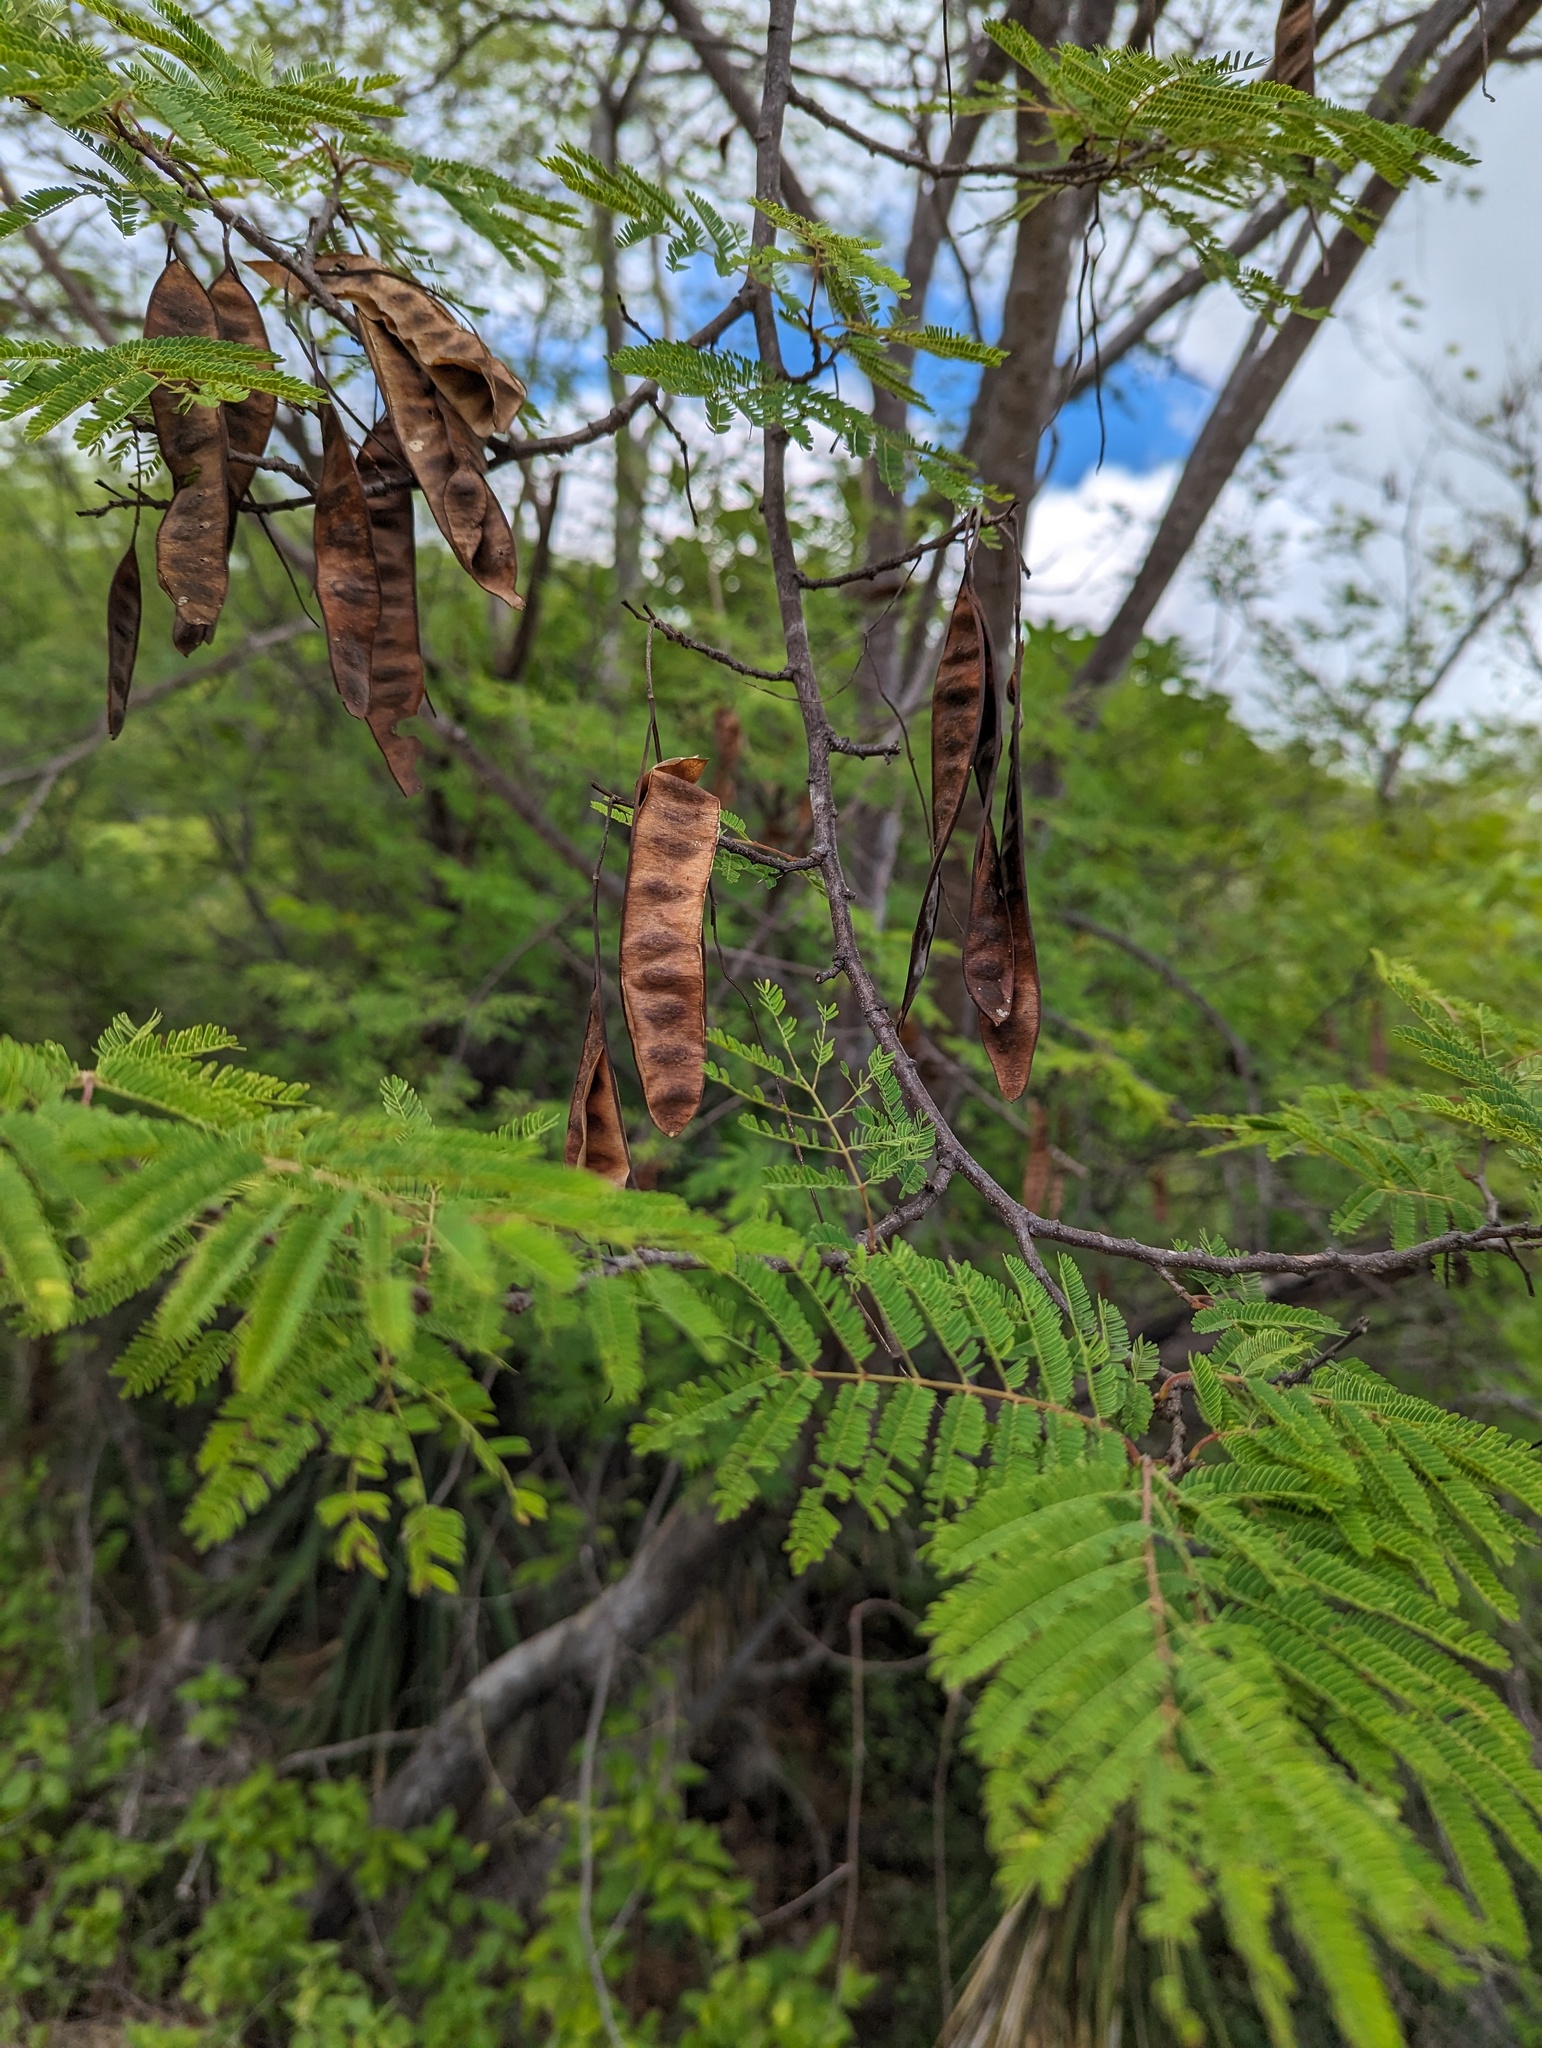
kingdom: Plantae
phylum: Tracheophyta
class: Magnoliopsida
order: Fabales
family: Fabaceae
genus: Lysiloma
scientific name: Lysiloma divaricatum
